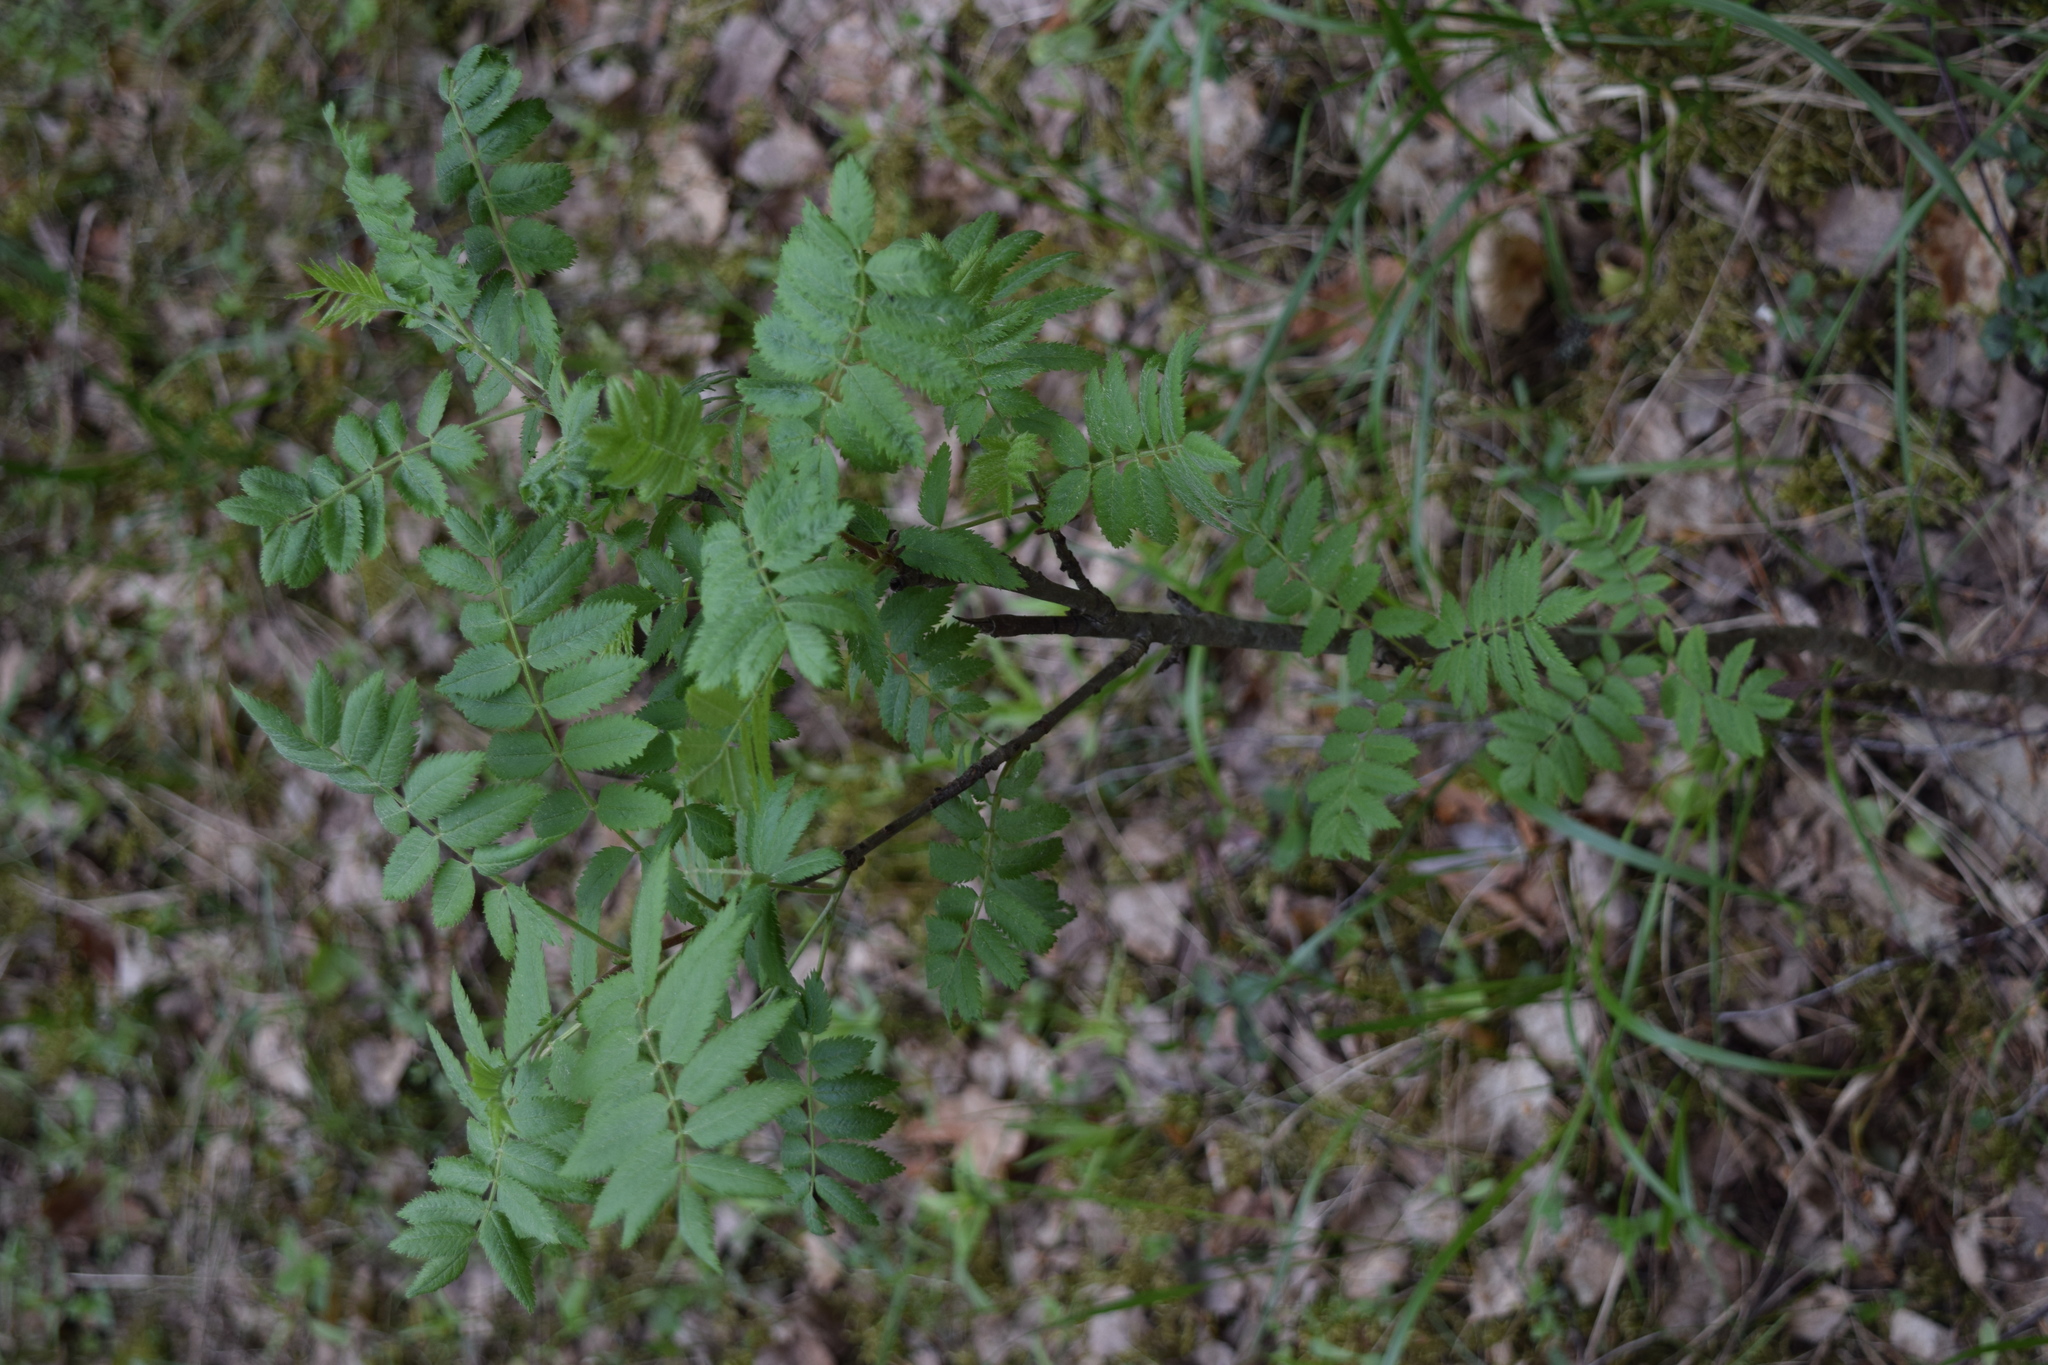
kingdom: Plantae
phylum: Tracheophyta
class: Magnoliopsida
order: Rosales
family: Rosaceae
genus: Sorbus
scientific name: Sorbus aucuparia
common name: Rowan
